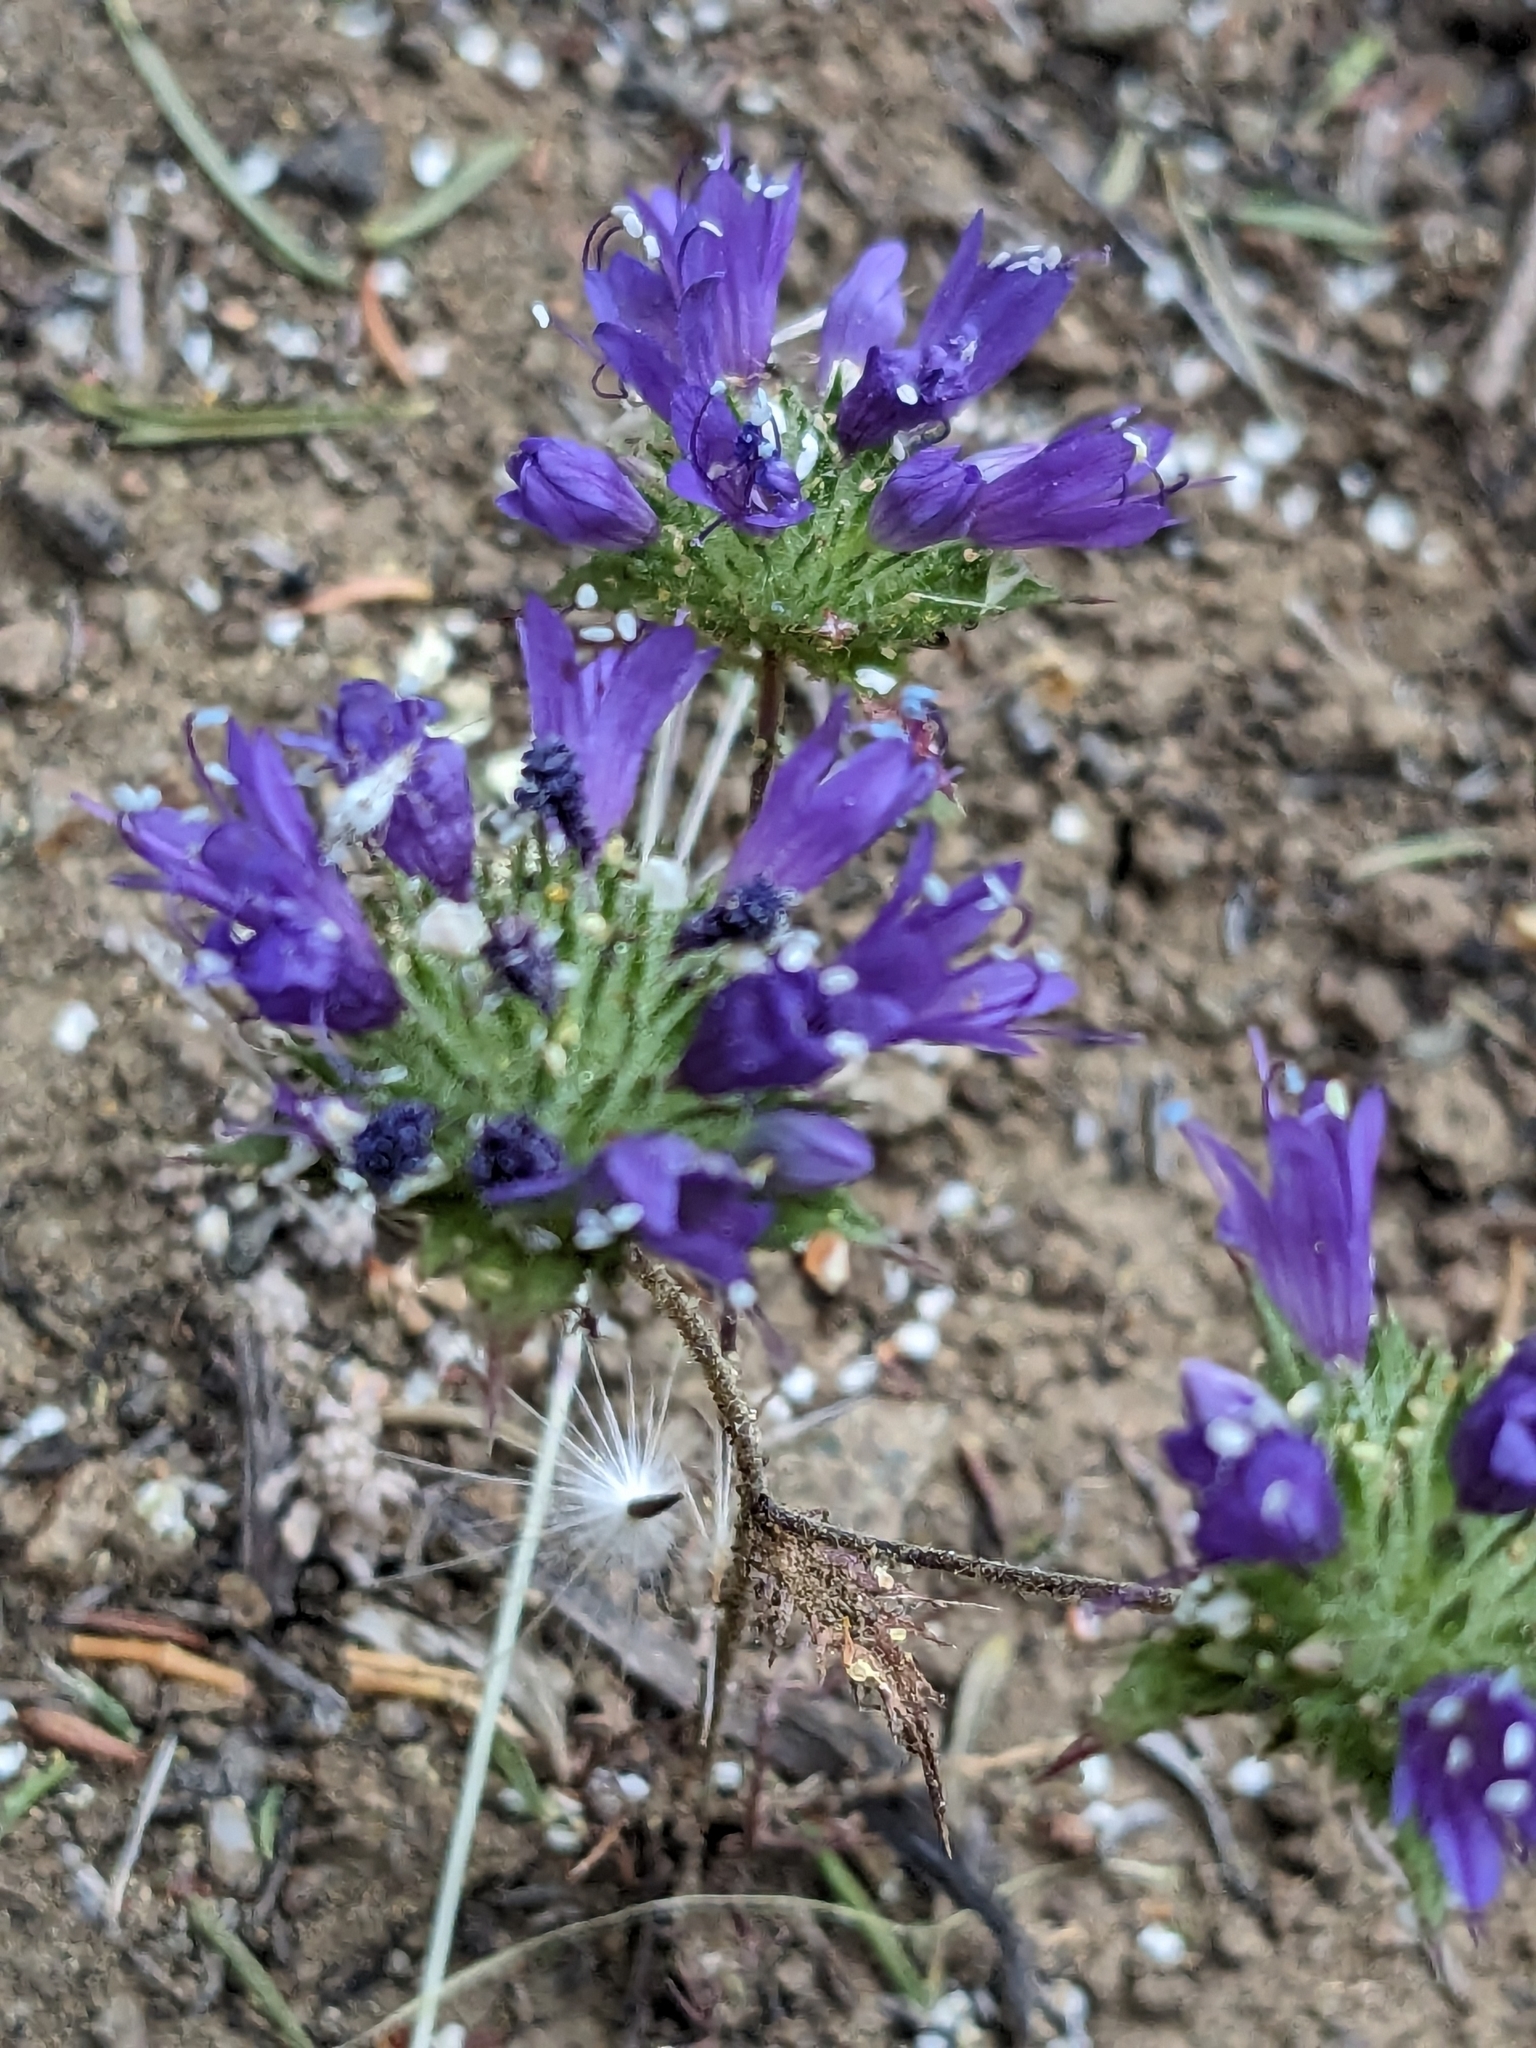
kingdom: Plantae
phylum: Tracheophyta
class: Magnoliopsida
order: Ericales
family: Polemoniaceae
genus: Navarretia
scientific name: Navarretia heterodoxa
